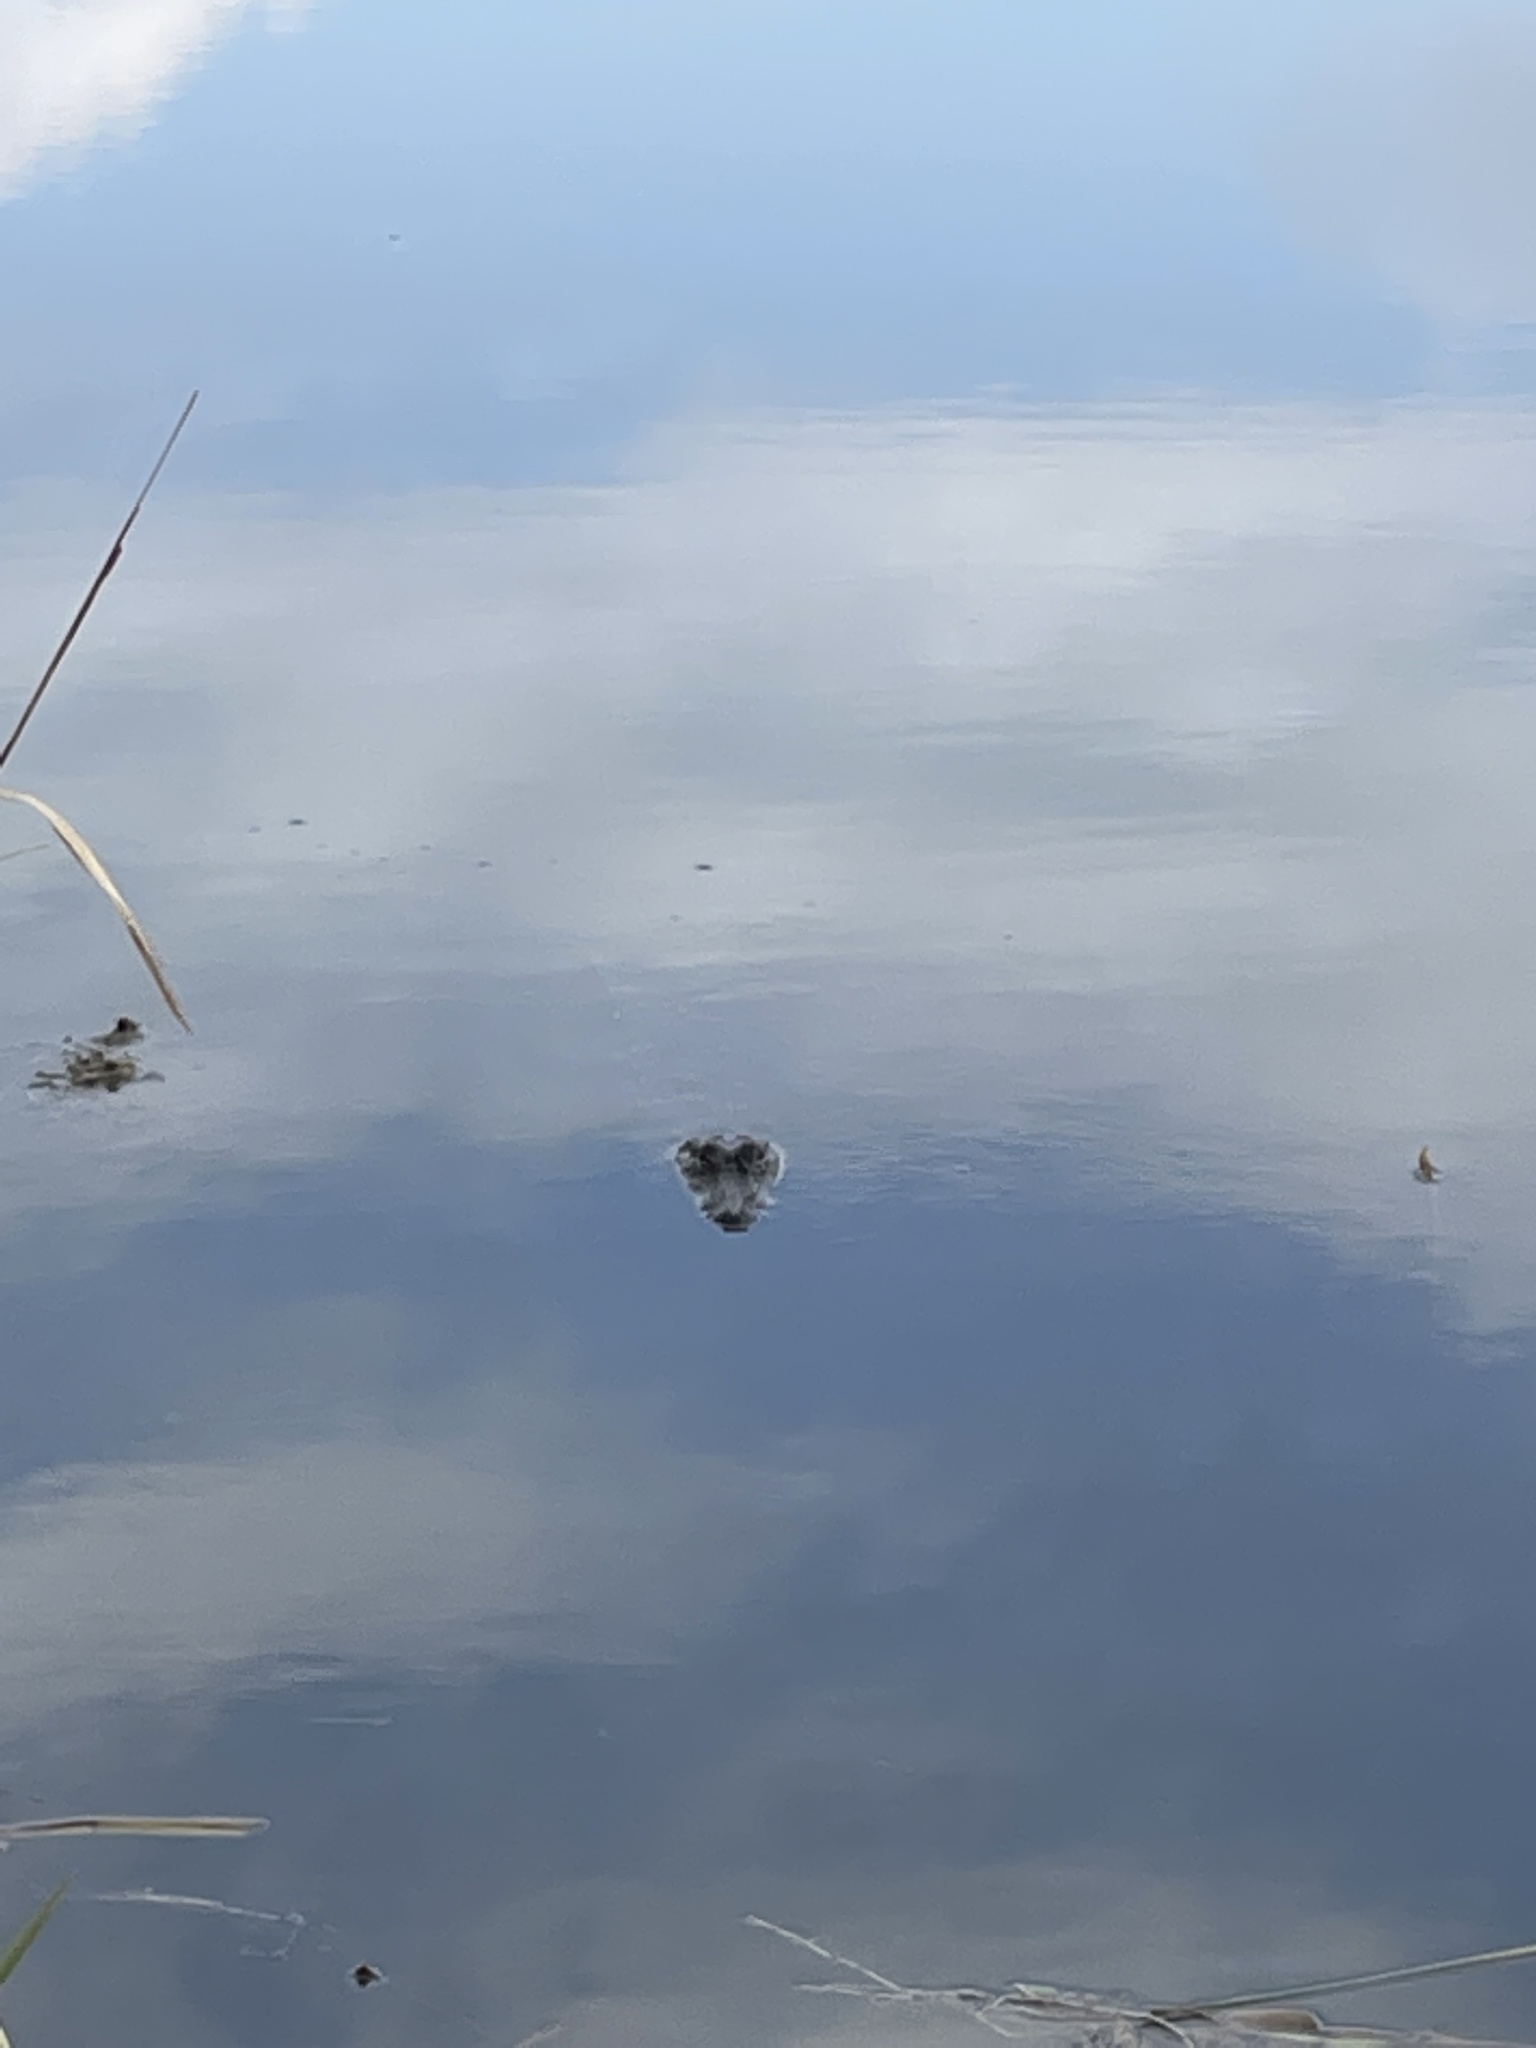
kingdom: Animalia
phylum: Chordata
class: Crocodylia
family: Alligatoridae
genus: Alligator
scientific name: Alligator mississippiensis
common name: American alligator
